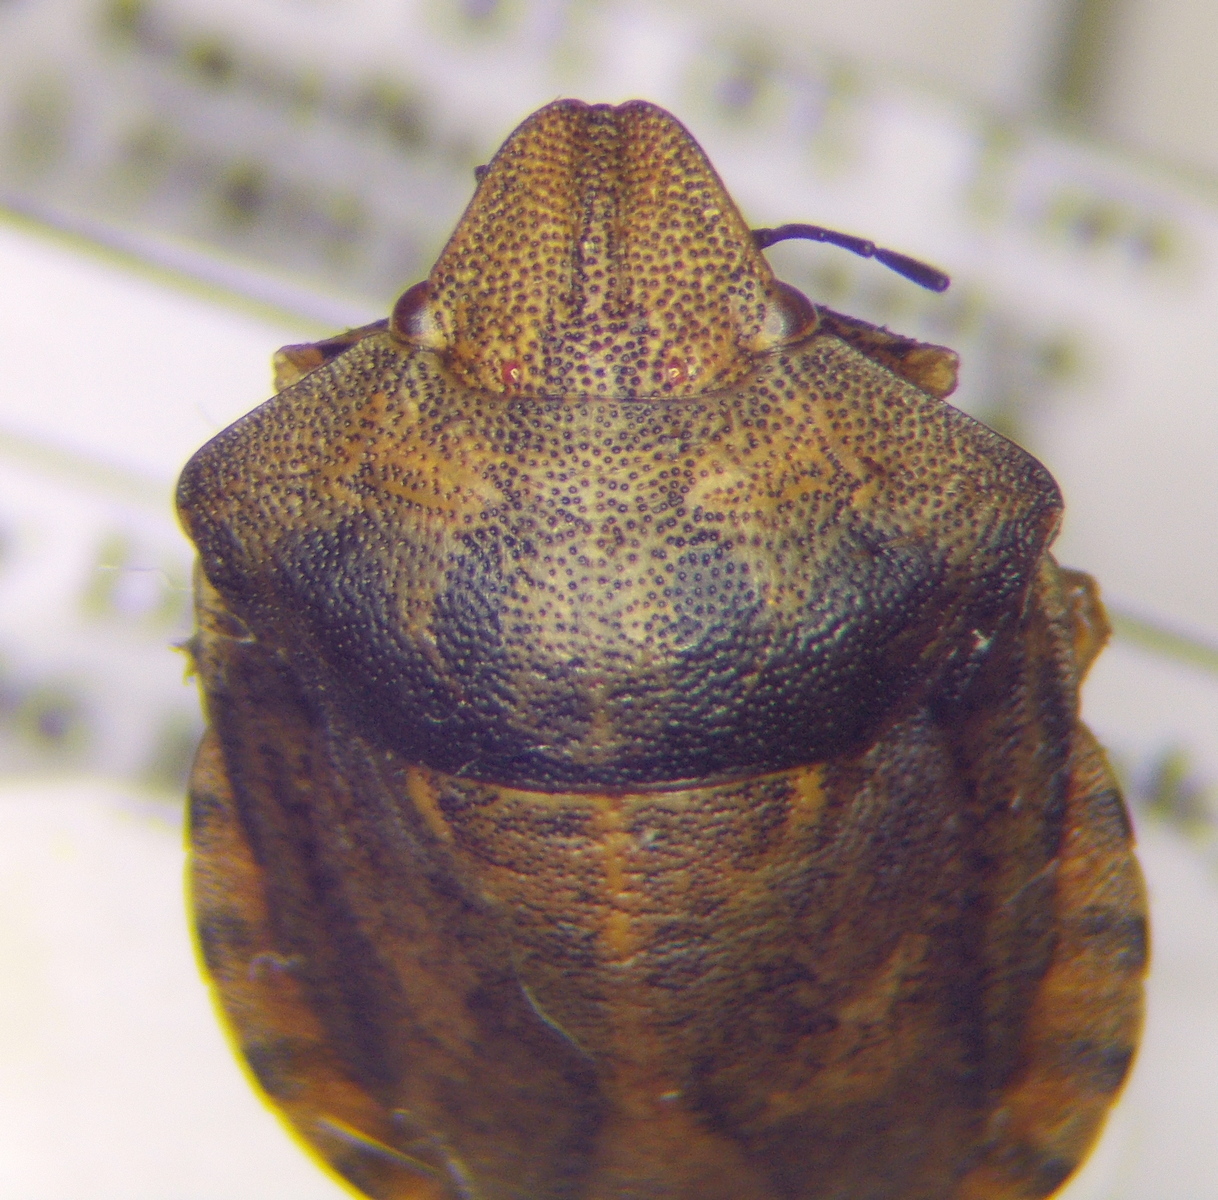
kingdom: Animalia
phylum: Arthropoda
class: Insecta
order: Hemiptera
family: Scutelleridae
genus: Eurygaster
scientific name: Eurygaster testudinaria
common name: Tortoise bug
